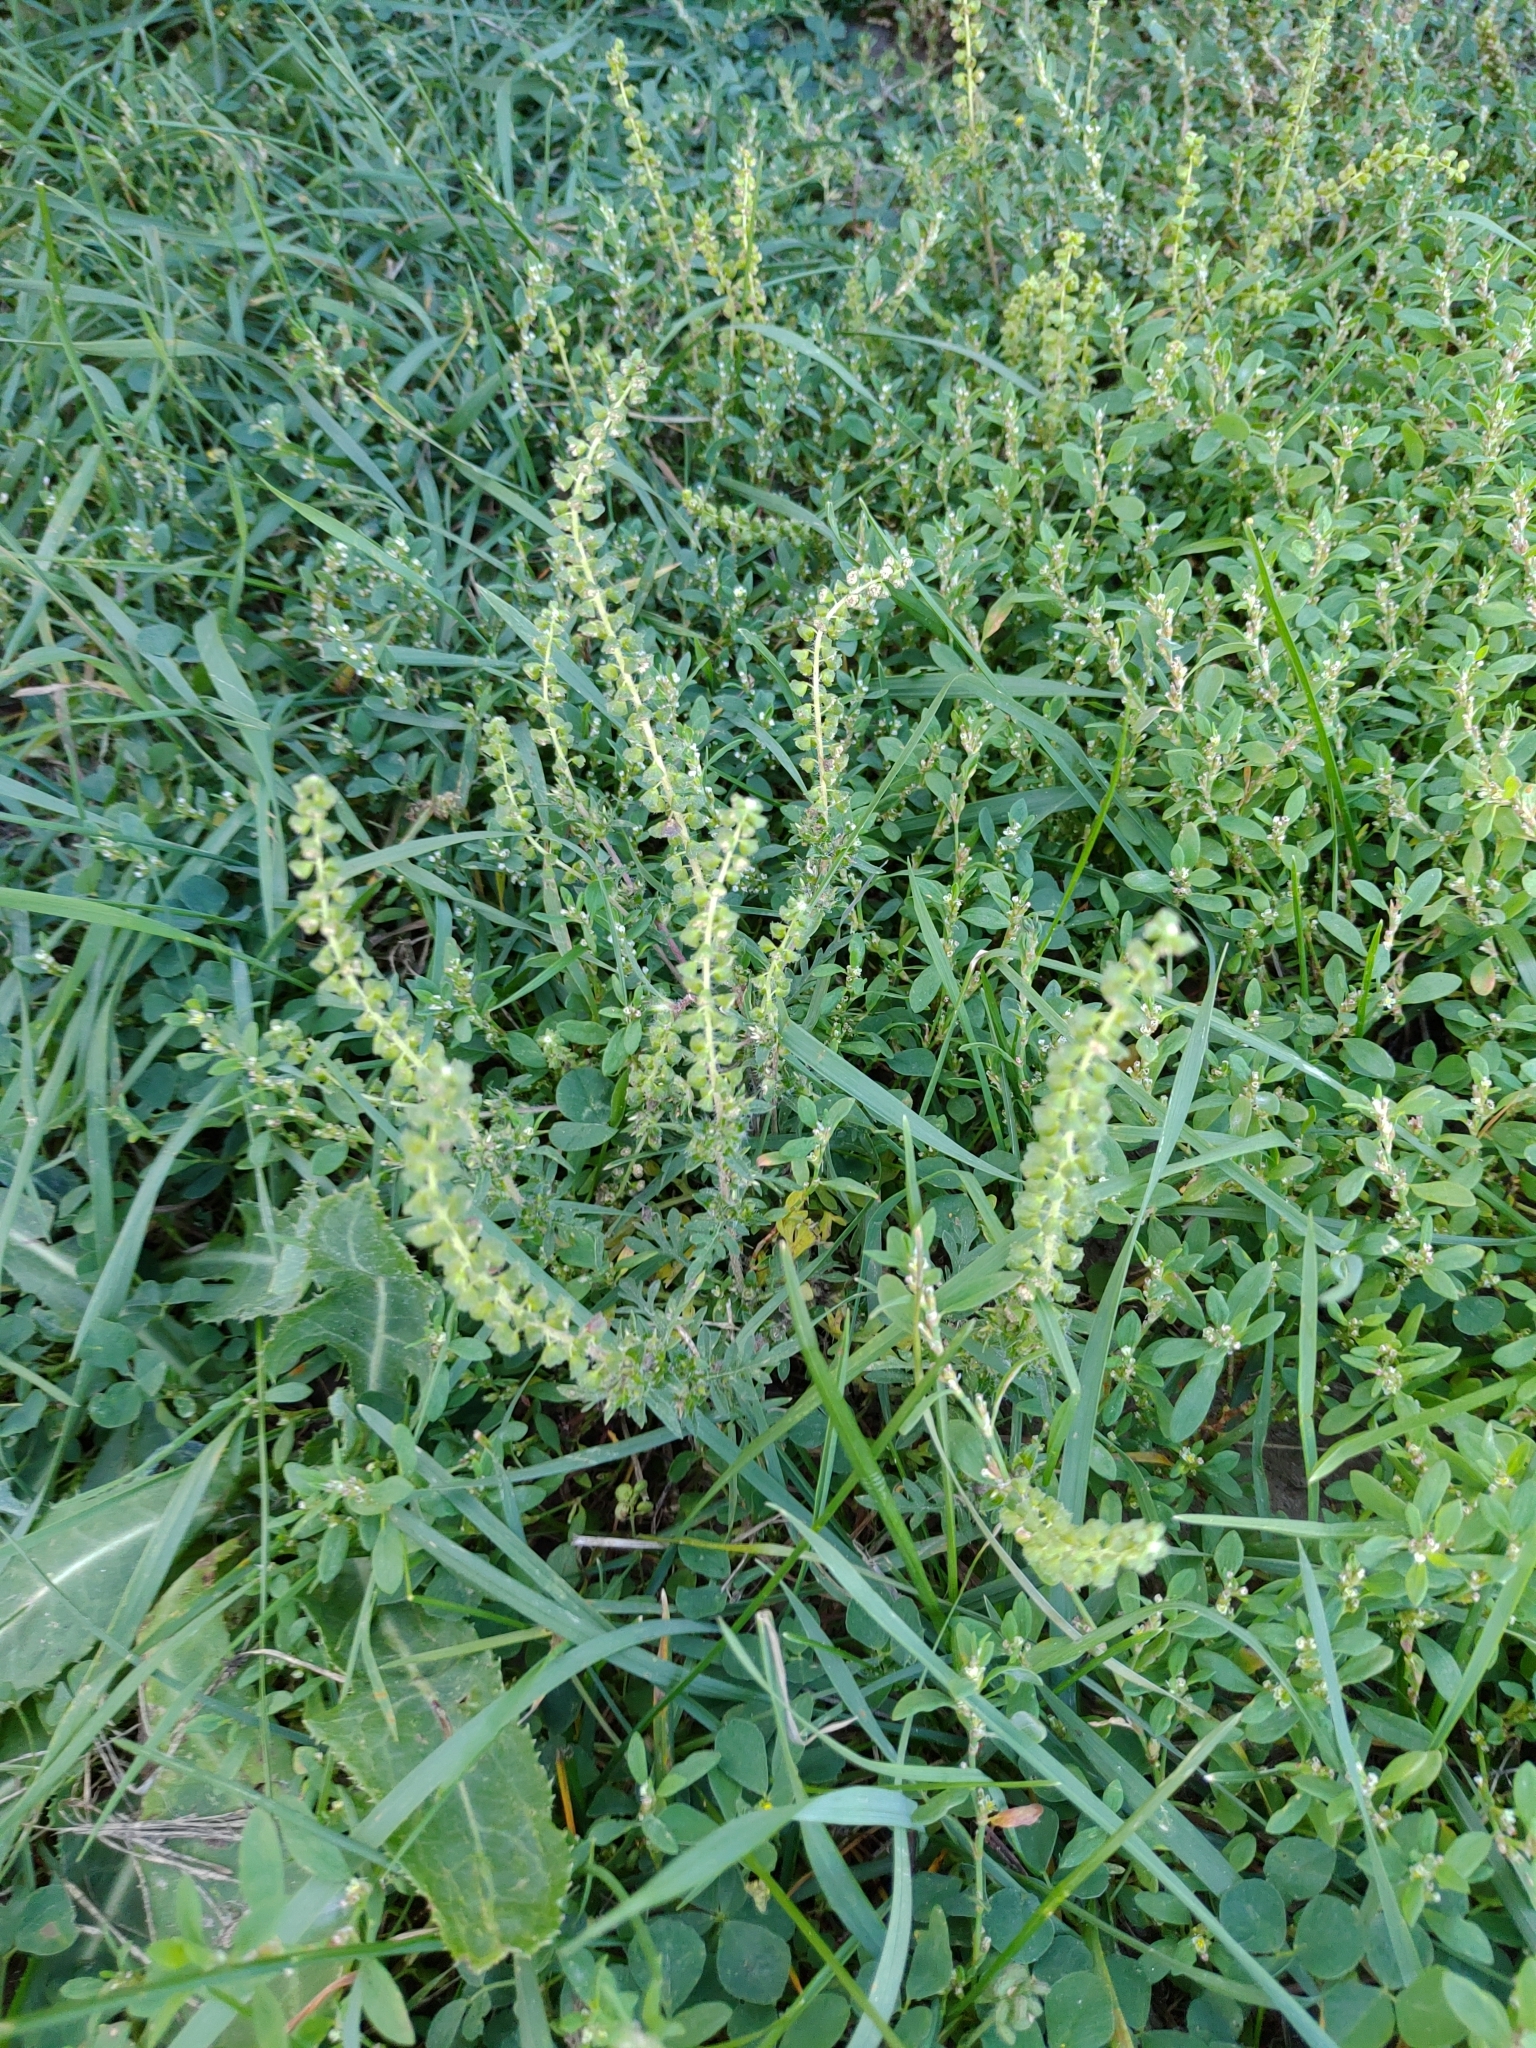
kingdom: Plantae
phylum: Tracheophyta
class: Magnoliopsida
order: Asterales
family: Asteraceae
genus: Ambrosia
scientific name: Ambrosia artemisiifolia
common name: Annual ragweed
